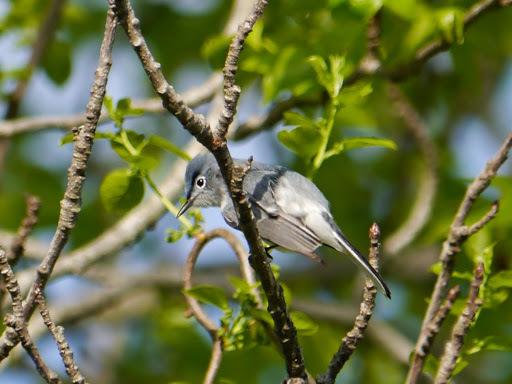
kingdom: Animalia
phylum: Chordata
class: Aves
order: Passeriformes
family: Polioptilidae
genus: Polioptila
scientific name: Polioptila caerulea
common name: Blue-gray gnatcatcher
